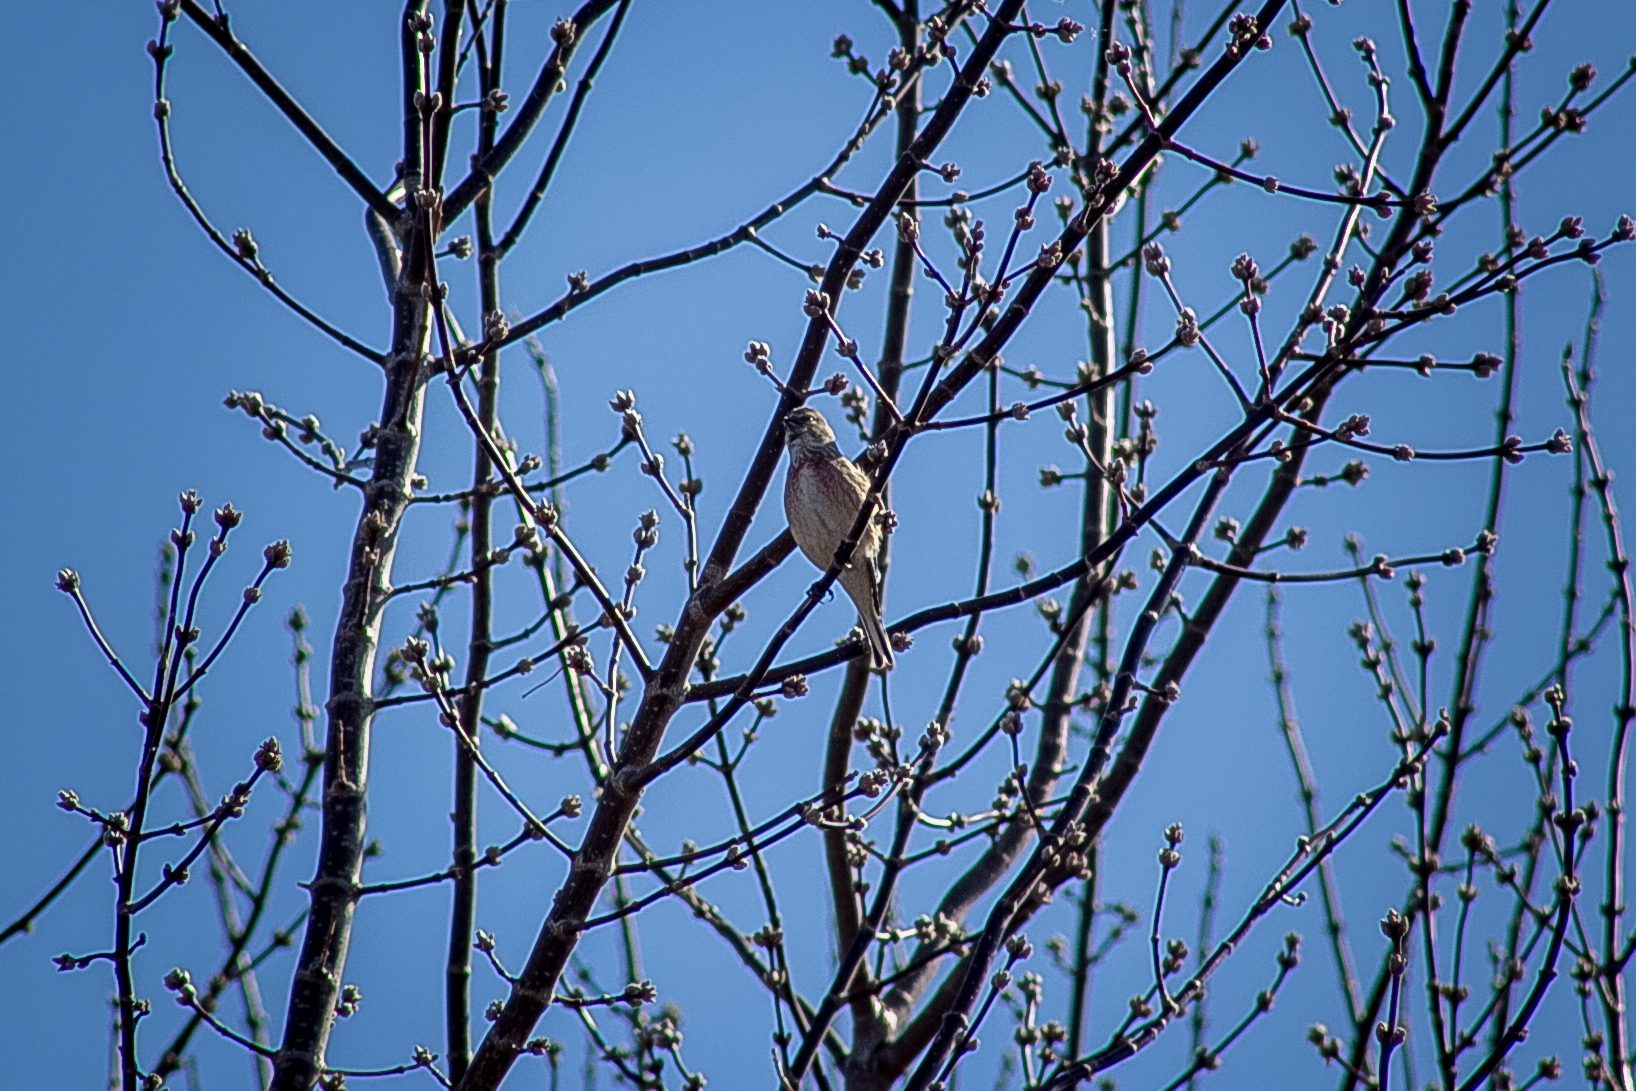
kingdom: Animalia
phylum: Chordata
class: Aves
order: Passeriformes
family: Fringillidae
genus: Linaria
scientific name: Linaria cannabina
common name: Common linnet
